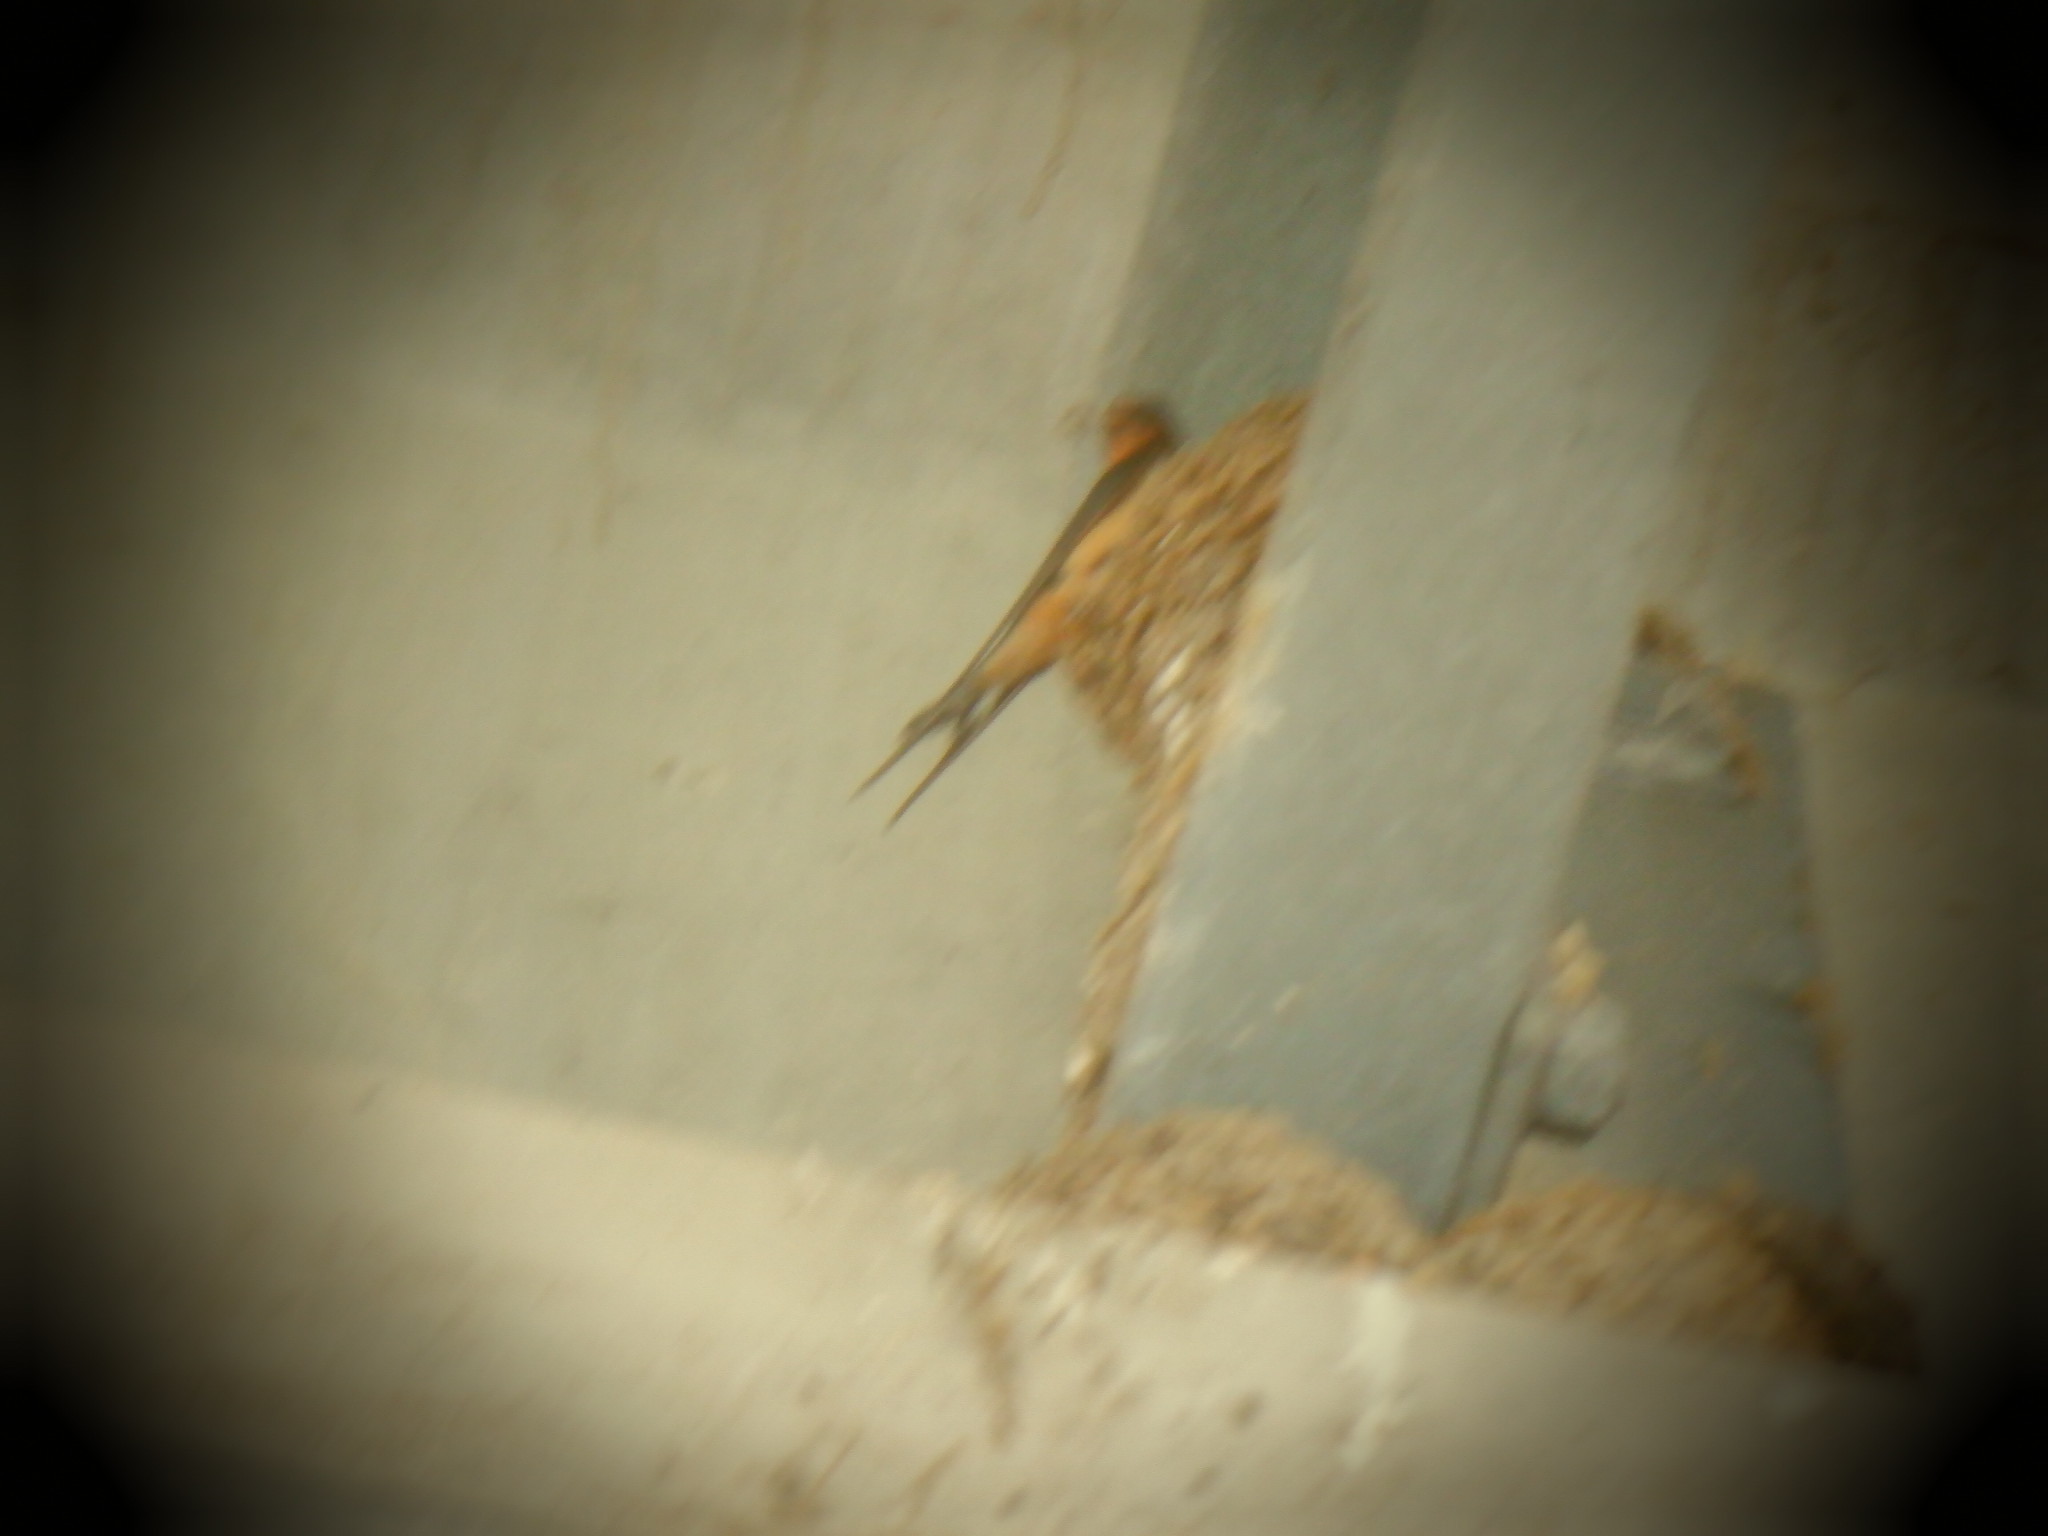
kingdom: Animalia
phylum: Chordata
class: Aves
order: Passeriformes
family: Hirundinidae
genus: Hirundo
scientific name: Hirundo rustica
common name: Barn swallow
